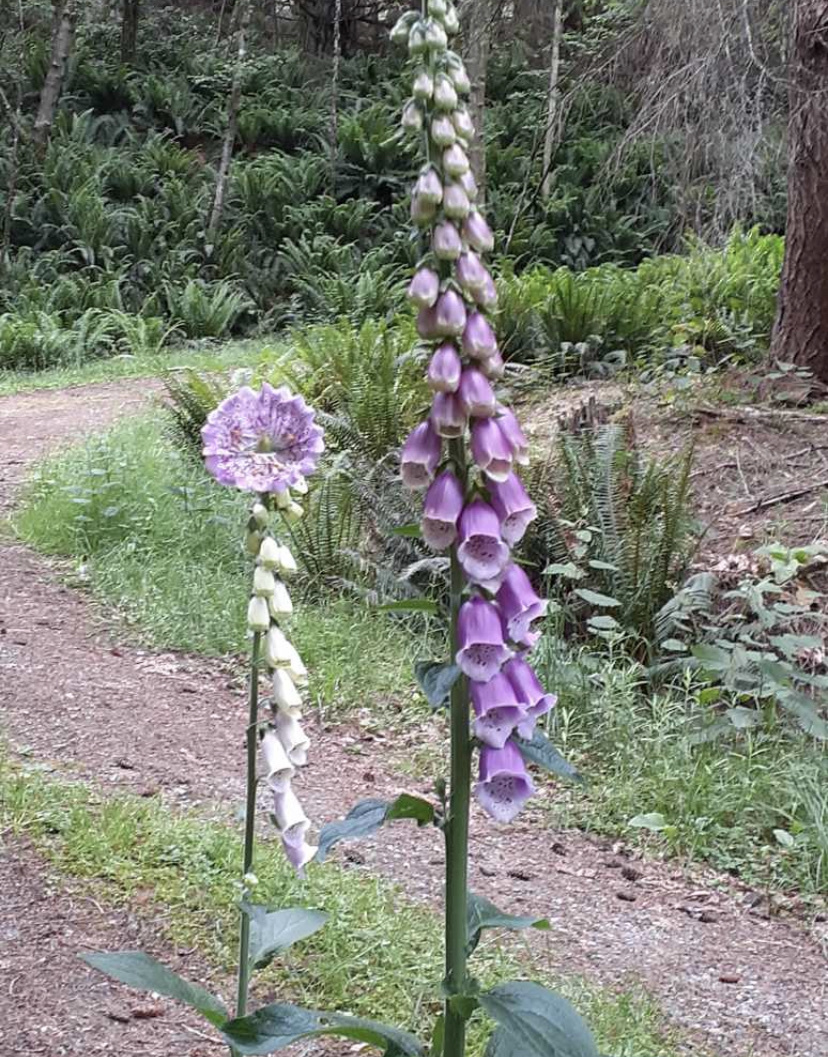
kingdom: Plantae
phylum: Tracheophyta
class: Magnoliopsida
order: Lamiales
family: Plantaginaceae
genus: Digitalis
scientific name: Digitalis purpurea
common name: Foxglove
